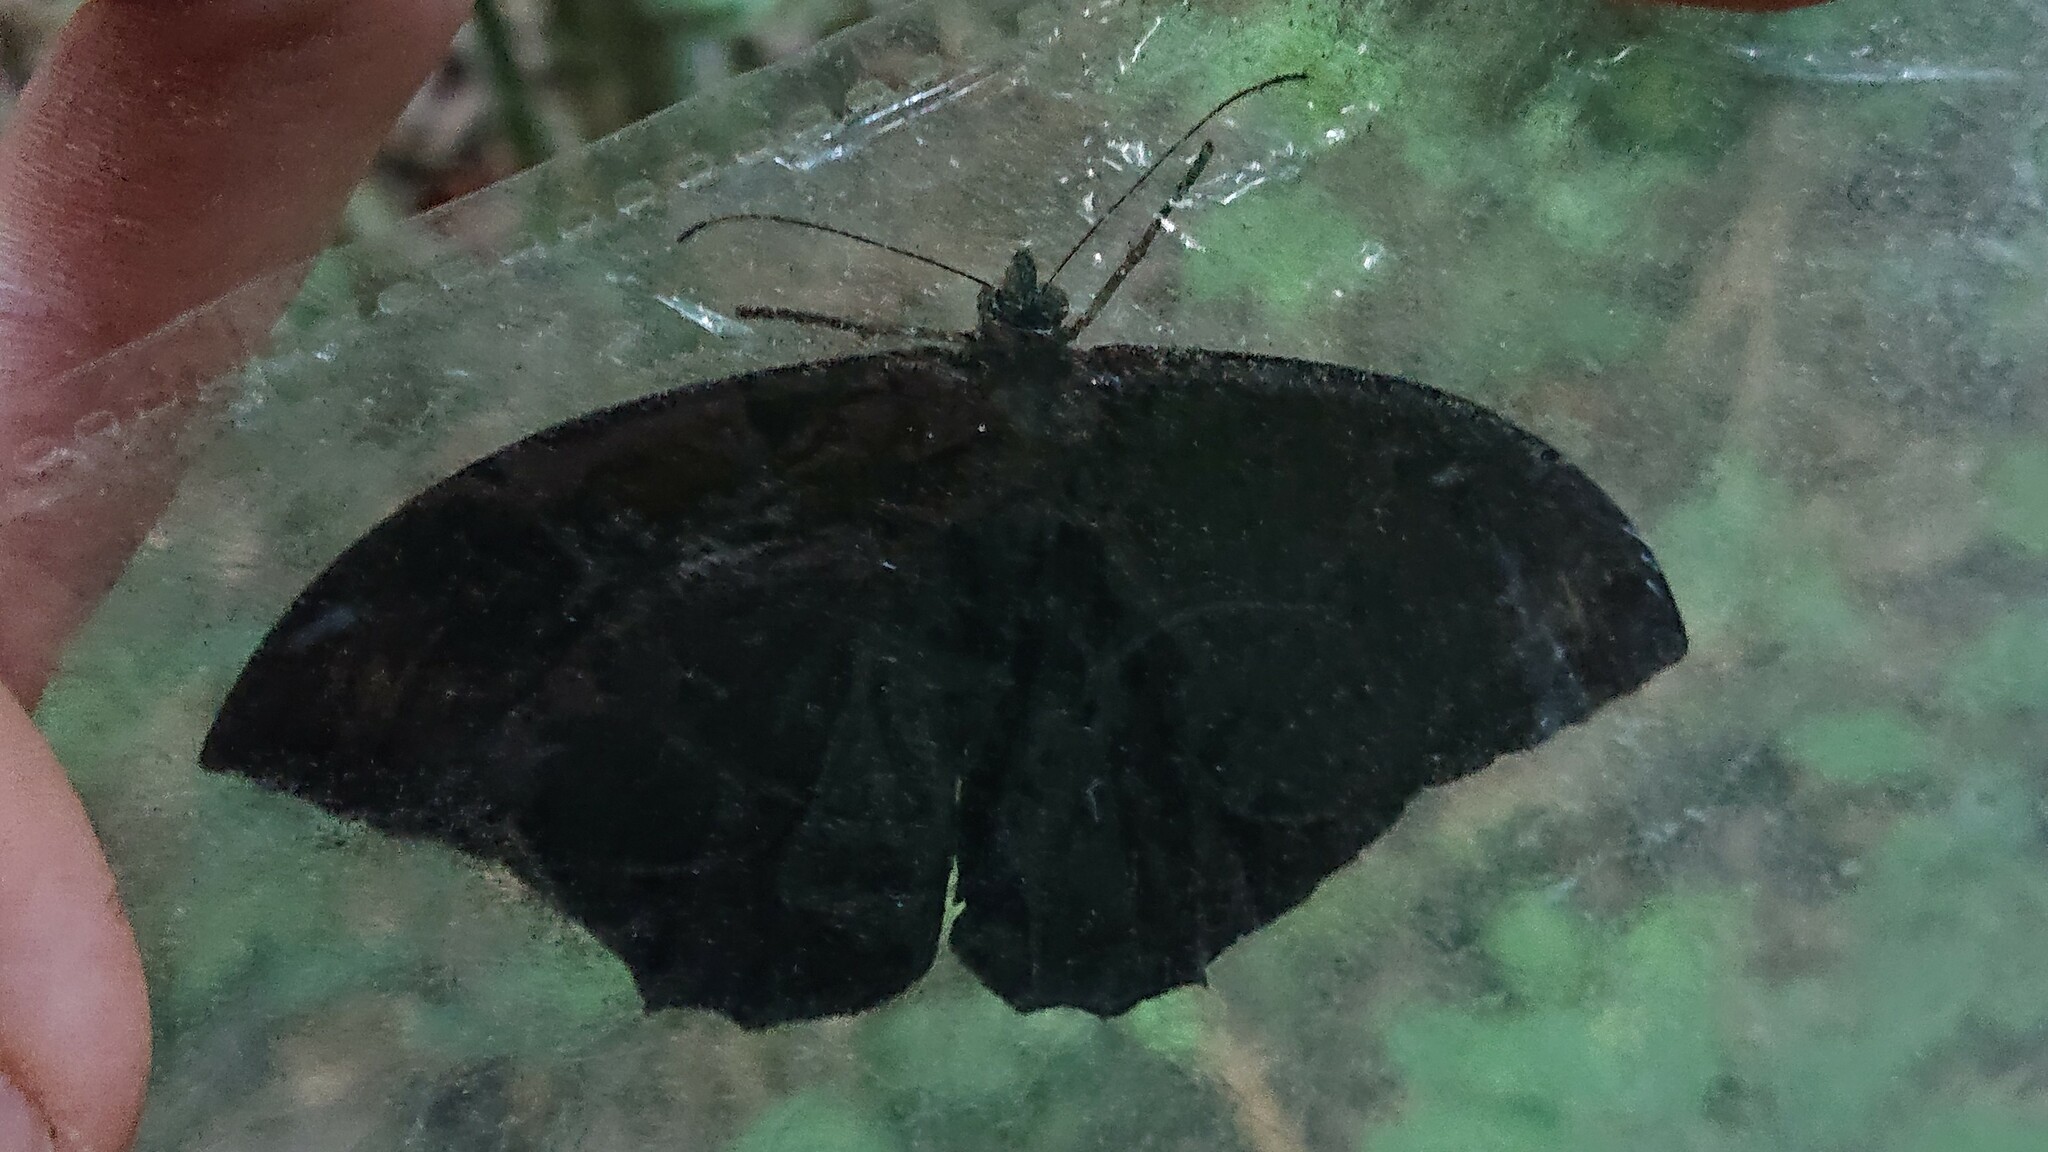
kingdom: Animalia
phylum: Arthropoda
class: Insecta
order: Lepidoptera
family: Nymphalidae
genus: Taygetis
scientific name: Taygetis larua
